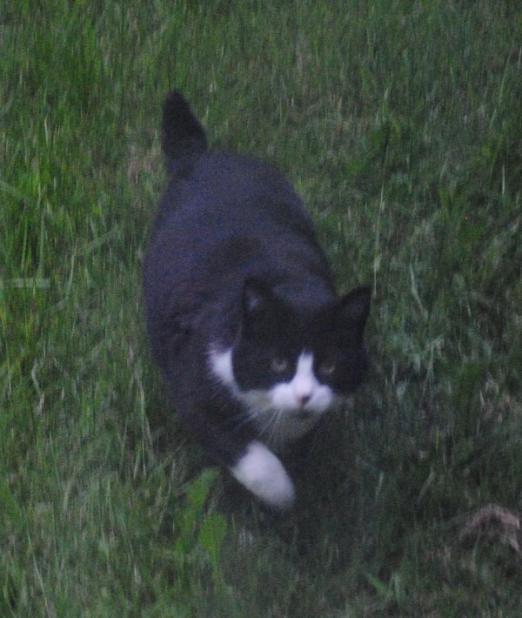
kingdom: Animalia
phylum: Chordata
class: Mammalia
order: Carnivora
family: Felidae
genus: Felis
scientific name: Felis catus
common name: Domestic cat
